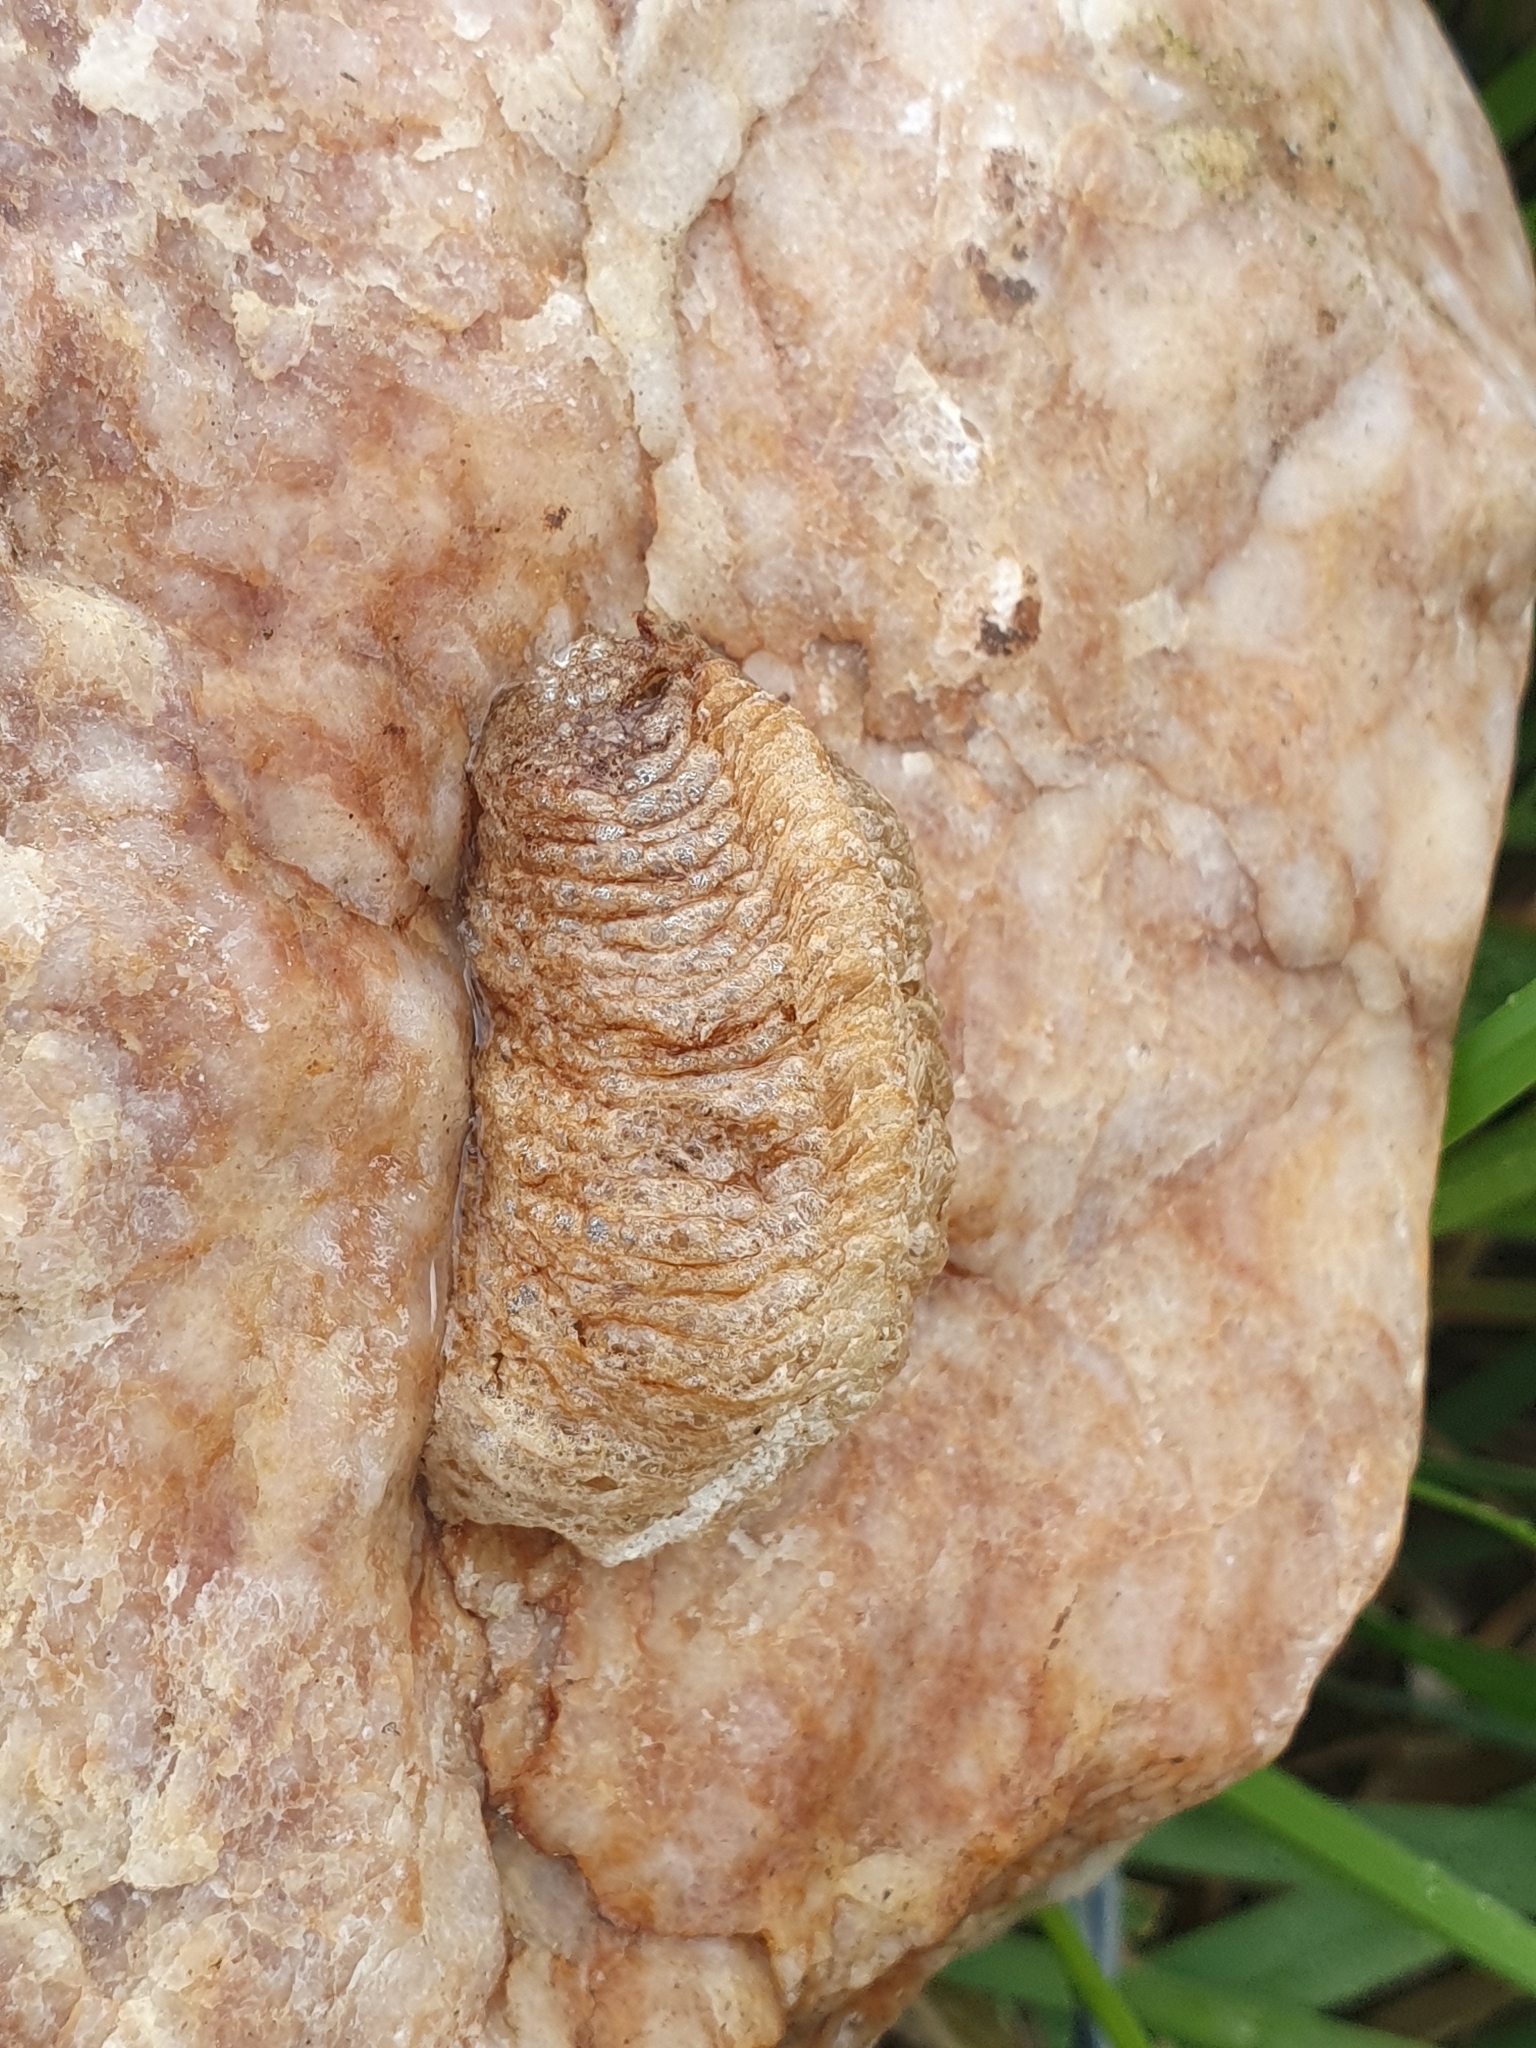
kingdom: Animalia
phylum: Arthropoda
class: Insecta
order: Mantodea
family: Mantidae
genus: Mantis
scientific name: Mantis religiosa
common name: Praying mantis
